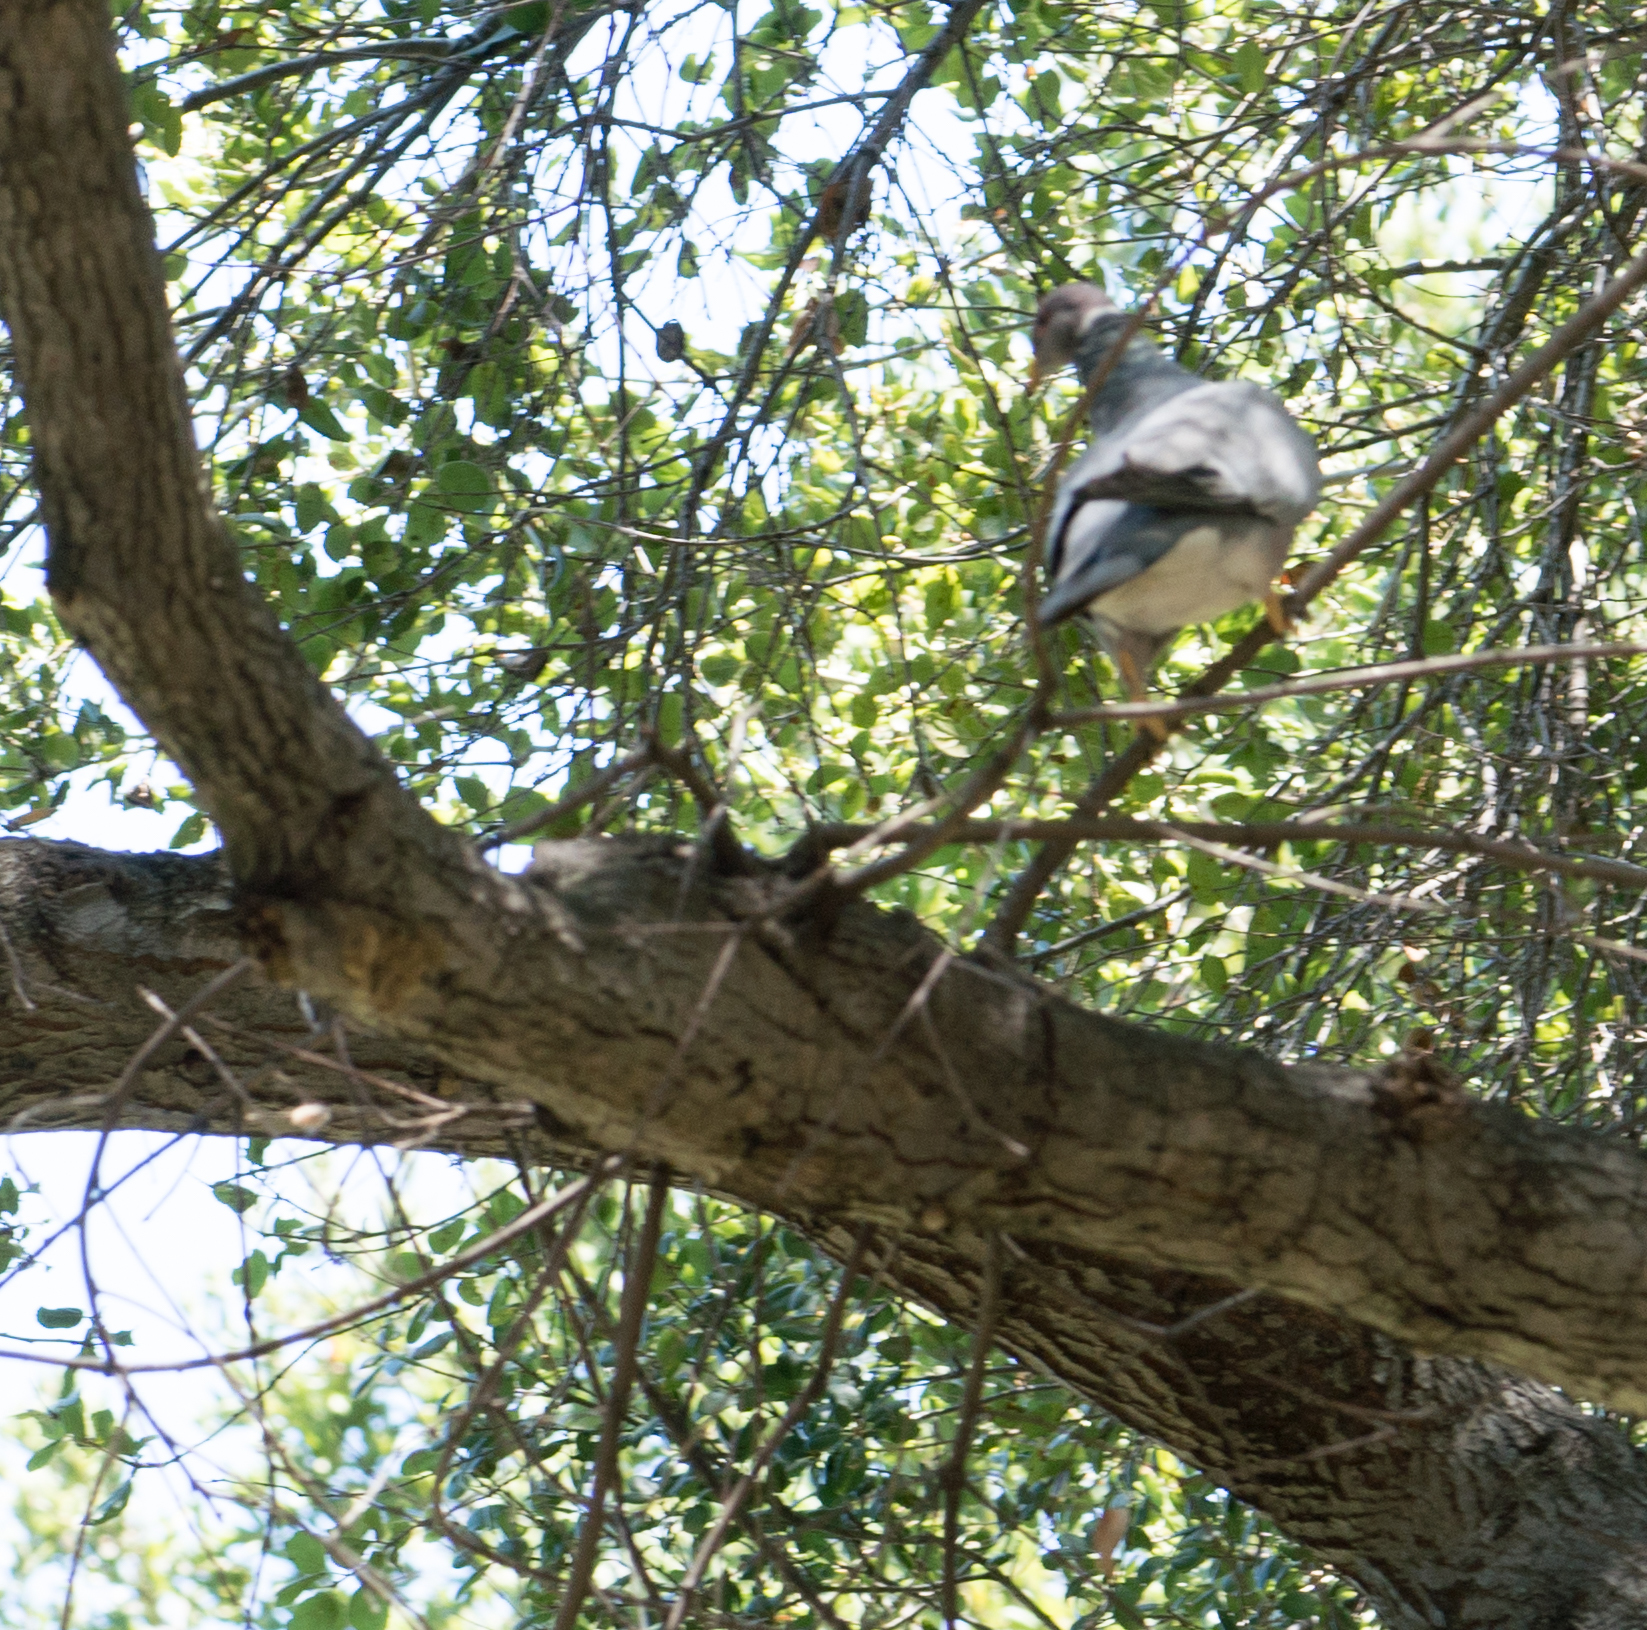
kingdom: Animalia
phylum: Chordata
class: Aves
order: Columbiformes
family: Columbidae
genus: Patagioenas
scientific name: Patagioenas fasciata
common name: Band-tailed pigeon
